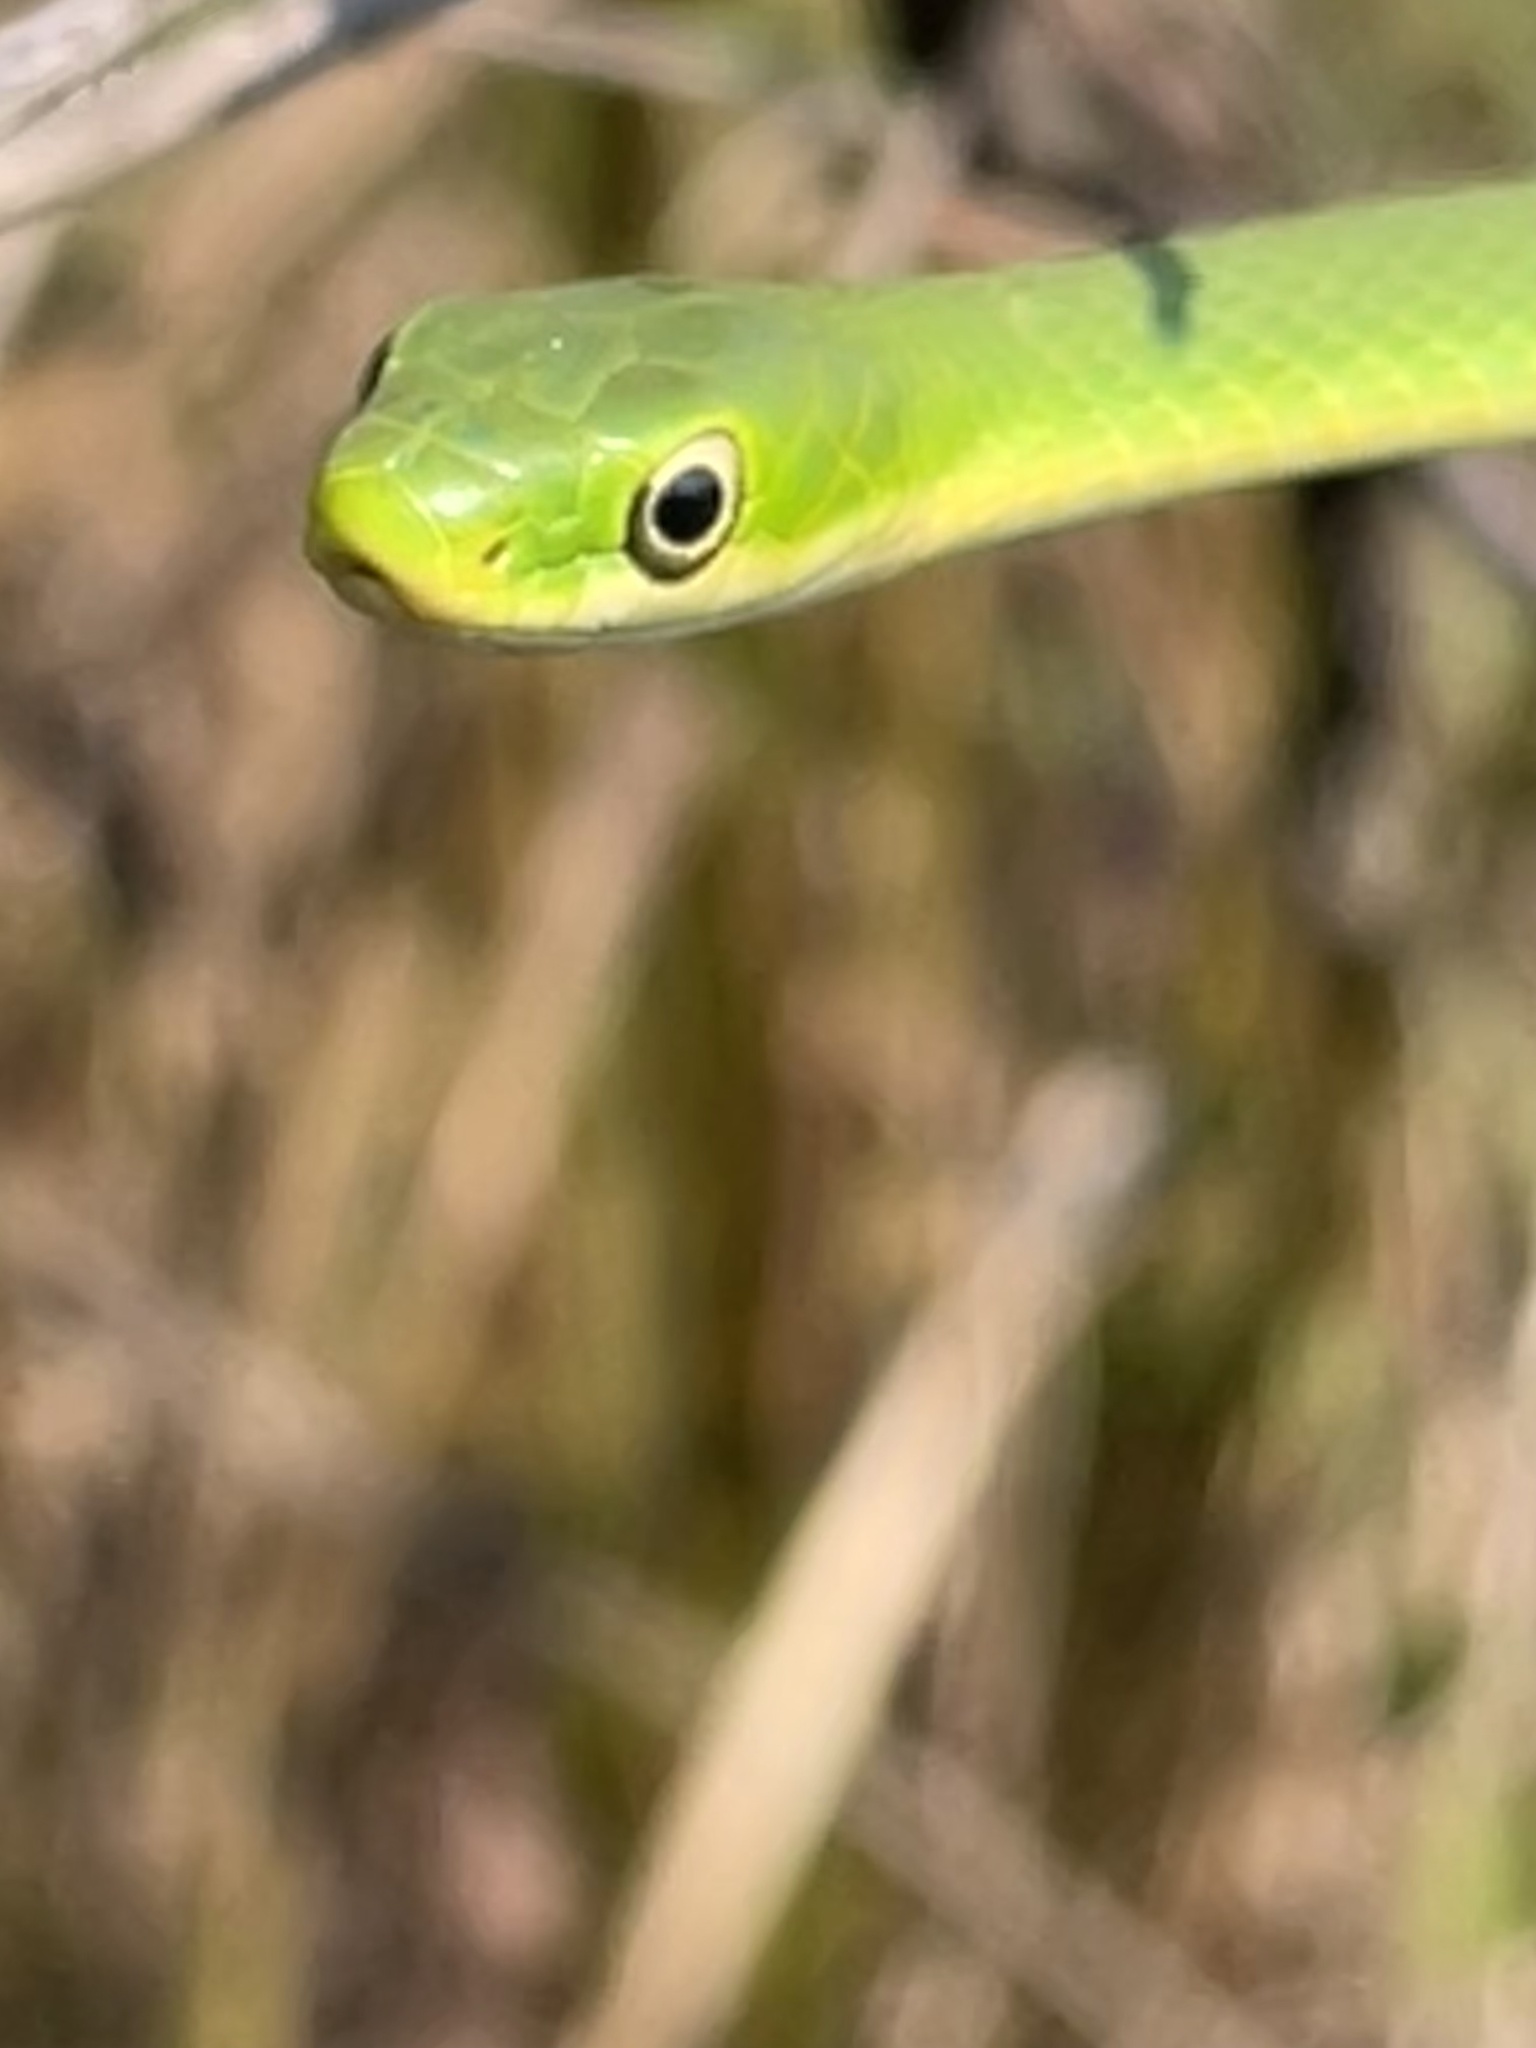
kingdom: Animalia
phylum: Chordata
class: Squamata
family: Colubridae
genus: Opheodrys
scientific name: Opheodrys aestivus
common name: Rough greensnake
